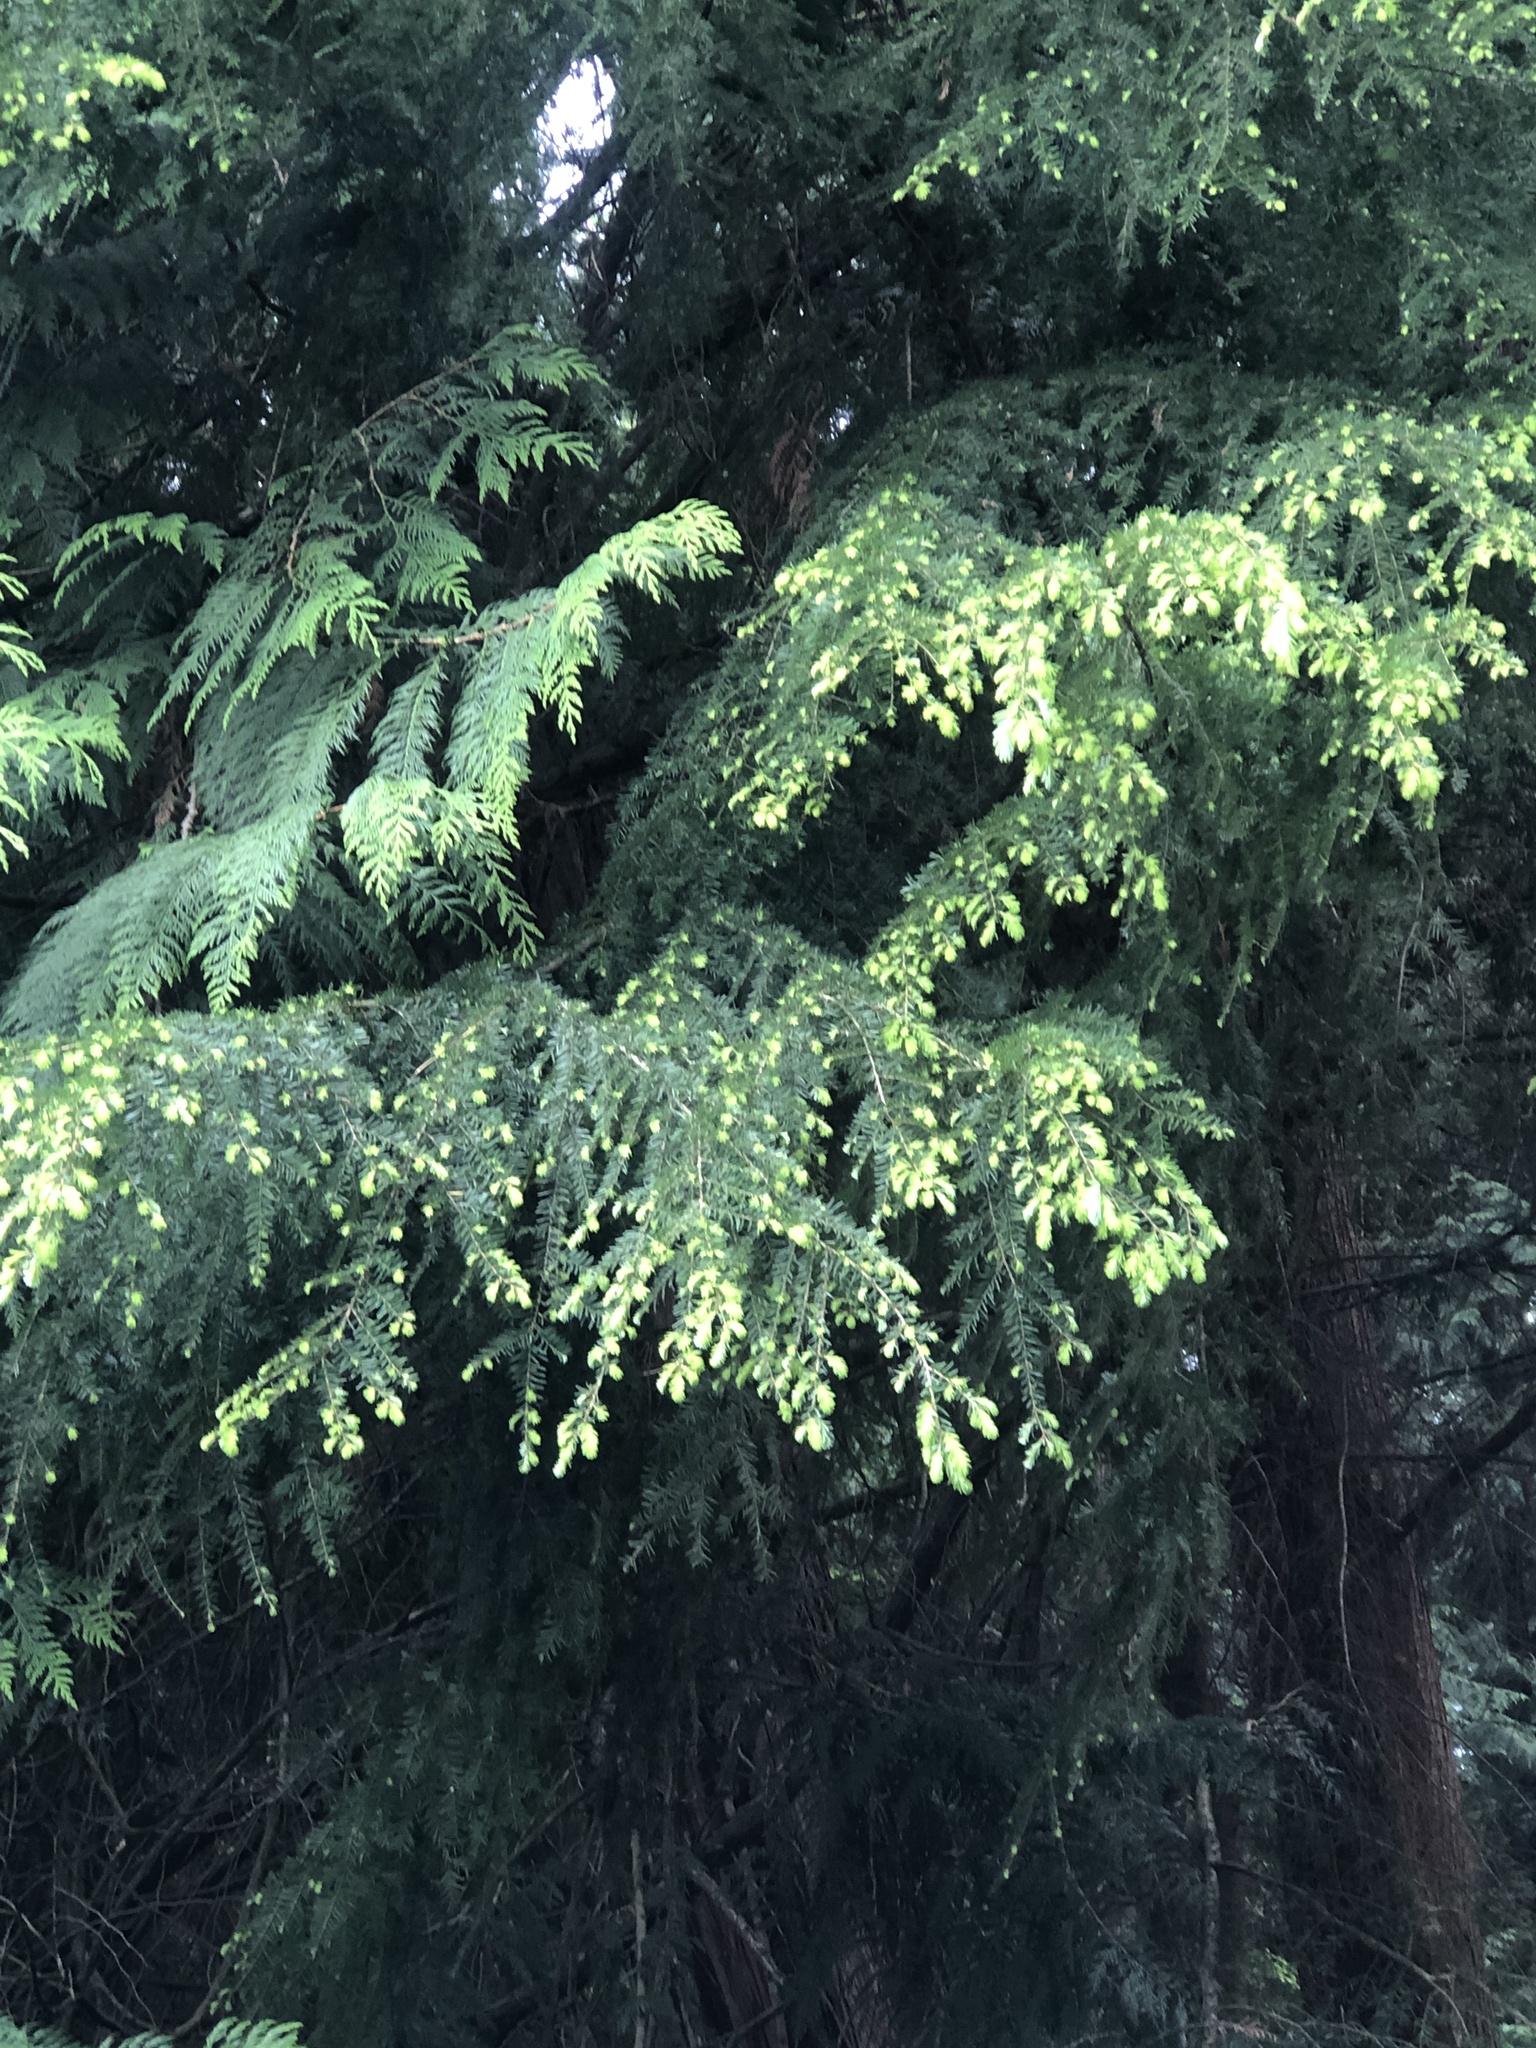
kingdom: Plantae
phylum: Tracheophyta
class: Pinopsida
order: Pinales
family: Pinaceae
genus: Tsuga
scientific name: Tsuga heterophylla
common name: Western hemlock
